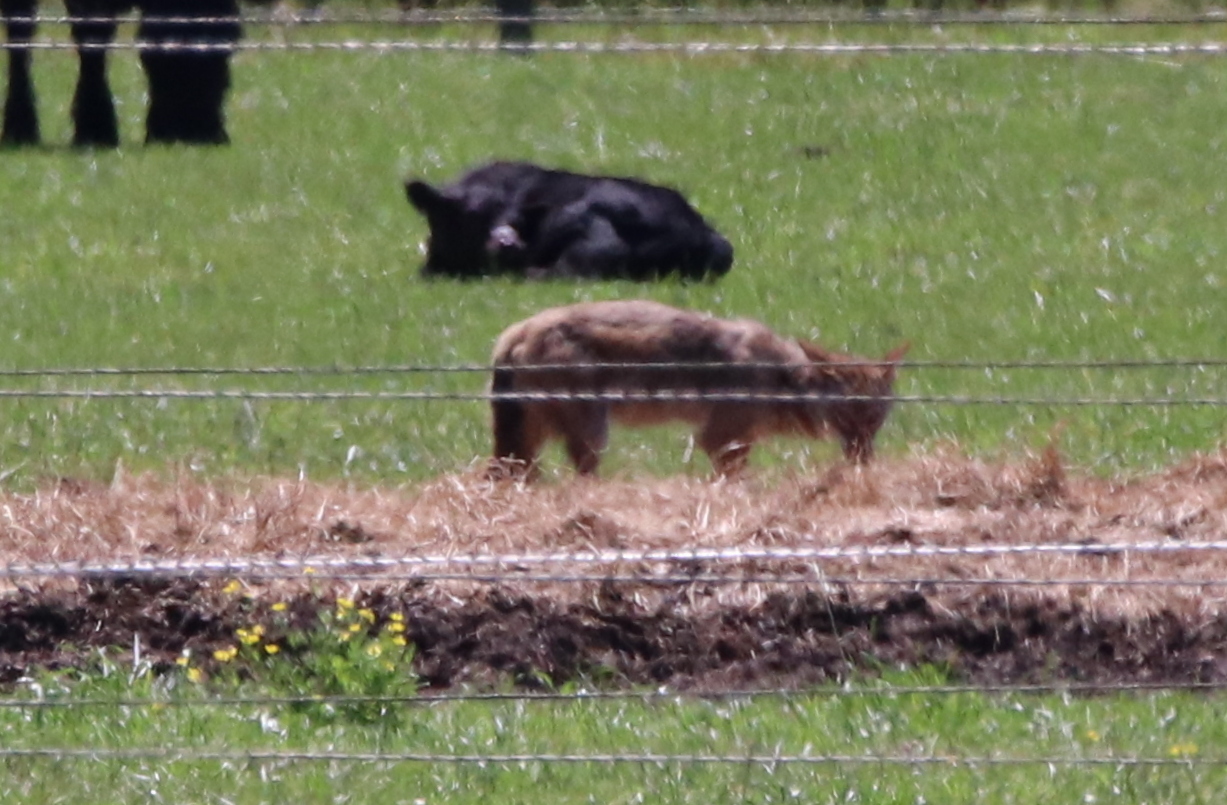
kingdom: Animalia
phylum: Chordata
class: Mammalia
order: Carnivora
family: Canidae
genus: Canis
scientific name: Canis latrans
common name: Coyote
